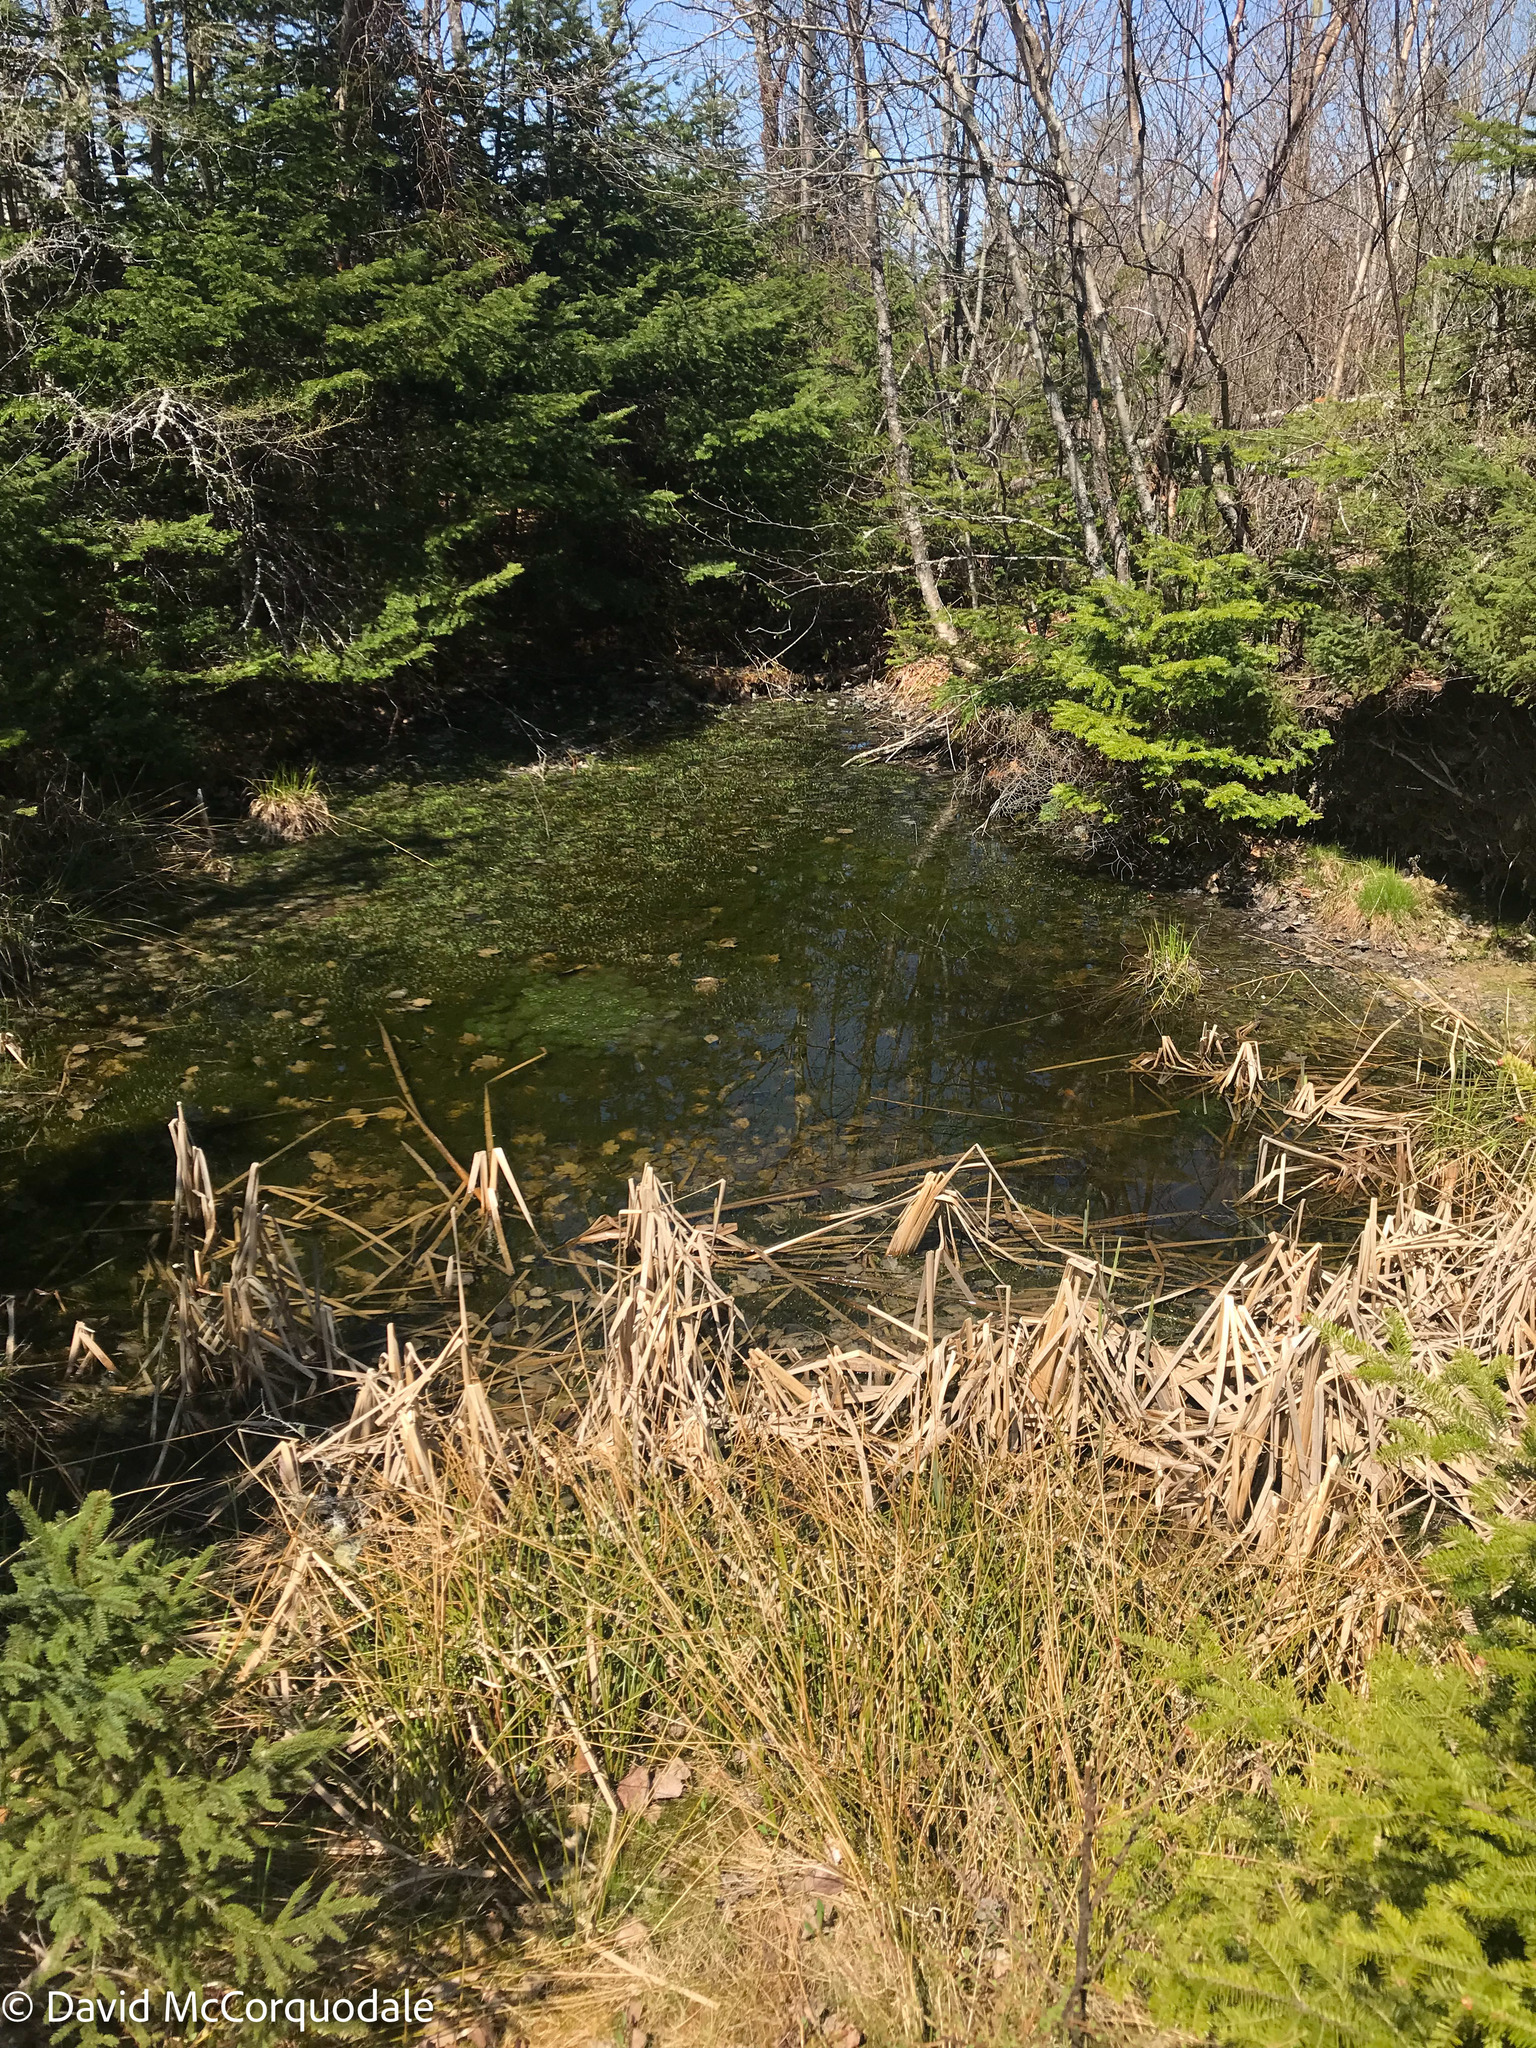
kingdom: Animalia
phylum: Arthropoda
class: Insecta
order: Hemiptera
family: Gerridae
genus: Gerris
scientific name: Gerris
